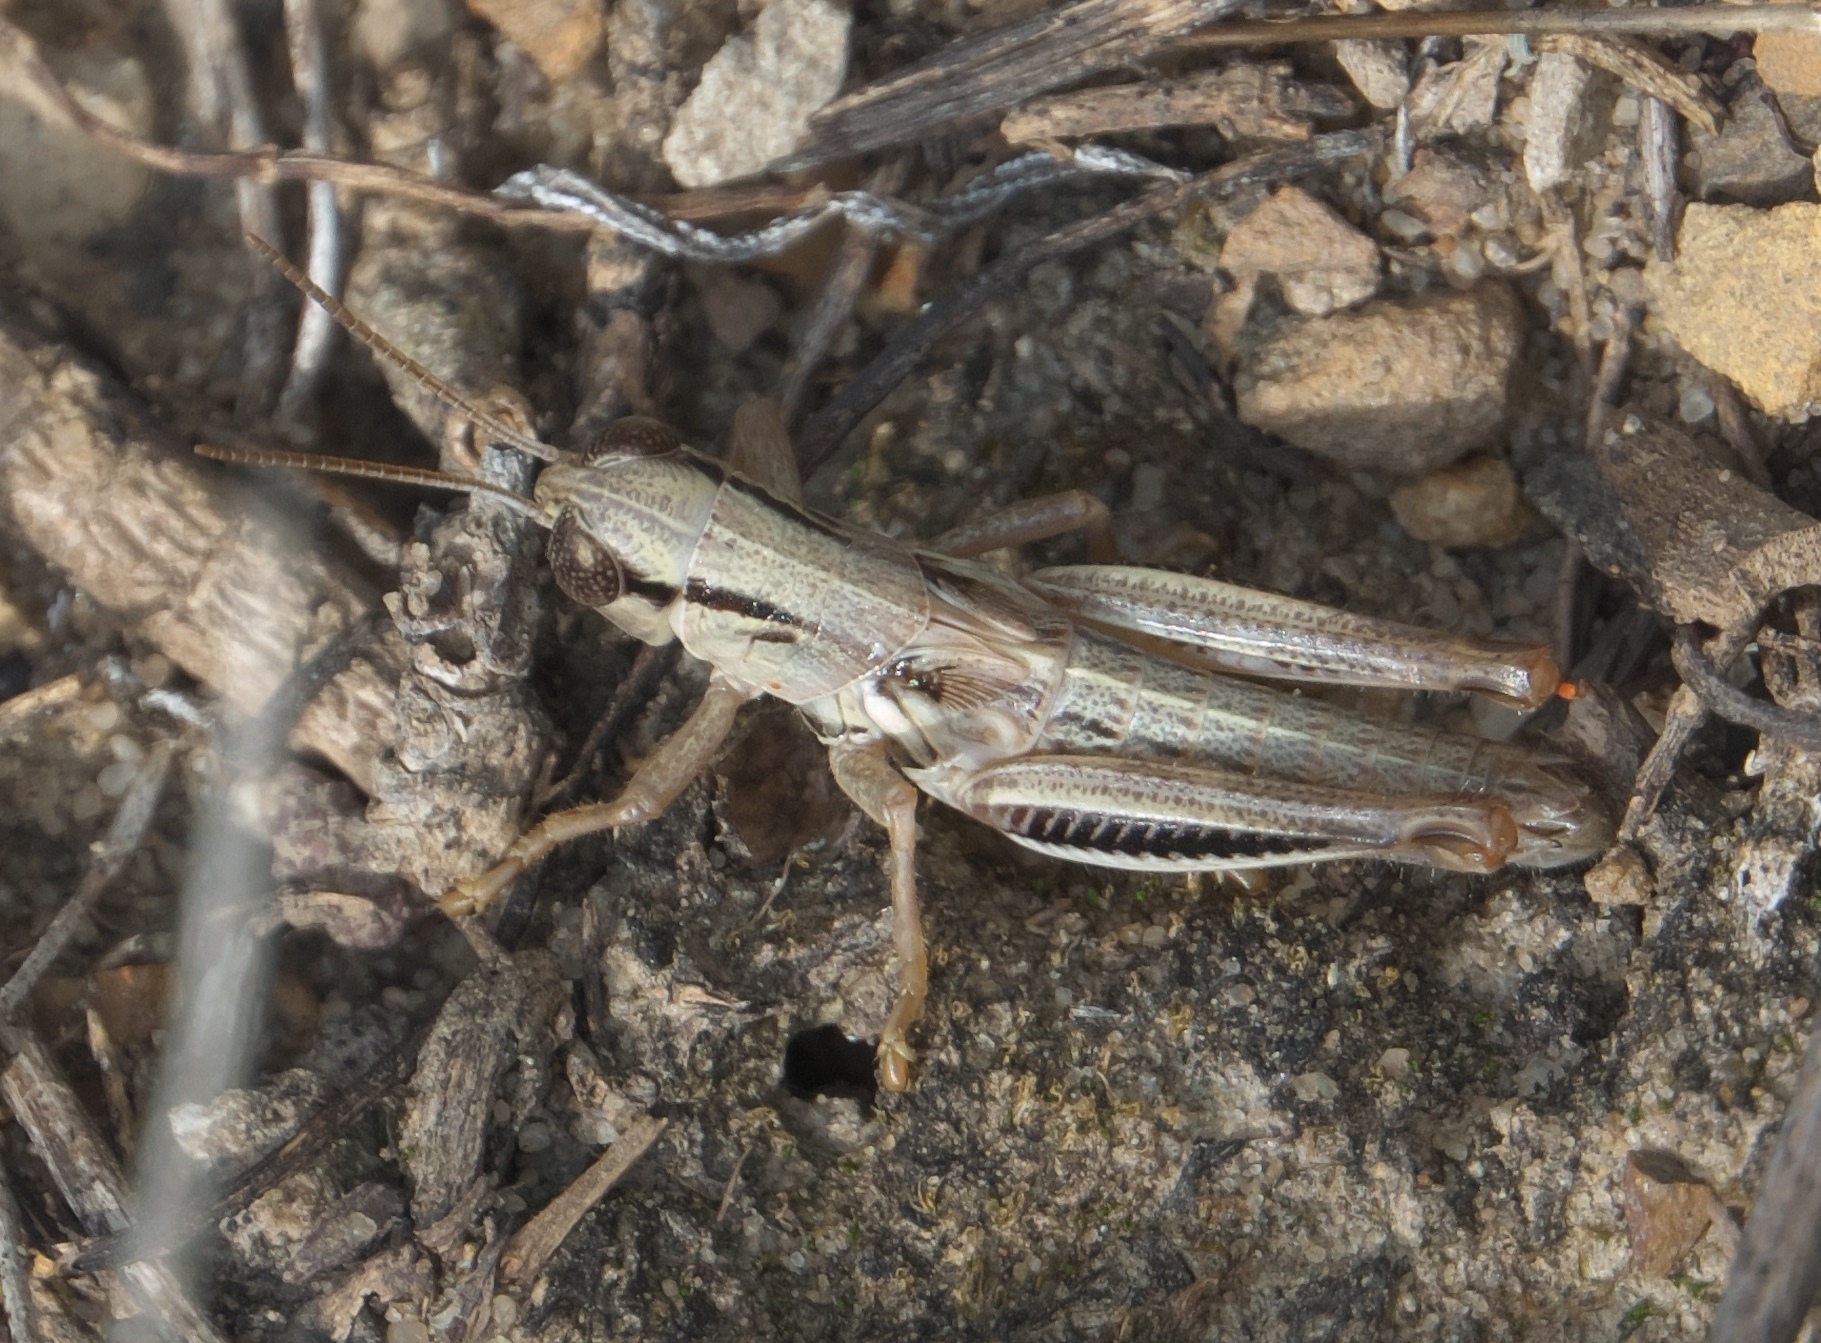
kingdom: Animalia
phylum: Arthropoda
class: Insecta
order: Orthoptera
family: Acrididae
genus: Phoetaliotes
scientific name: Phoetaliotes nebrascensis
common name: Large-headed grasshopper
